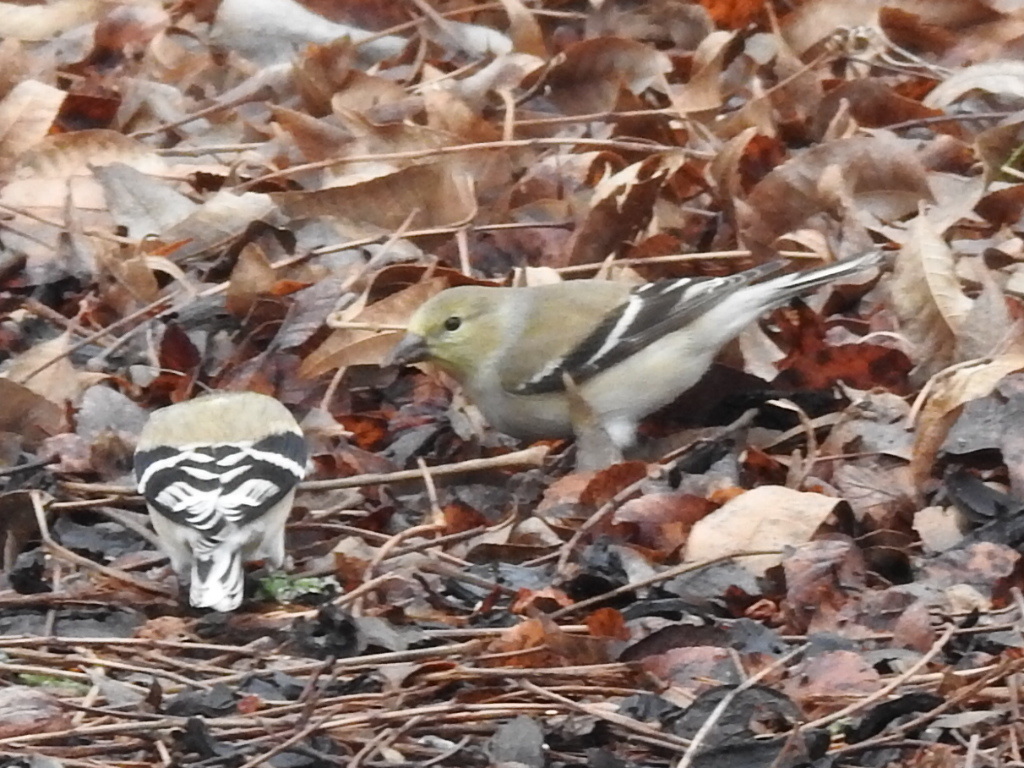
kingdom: Animalia
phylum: Chordata
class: Aves
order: Passeriformes
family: Fringillidae
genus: Spinus
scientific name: Spinus tristis
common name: American goldfinch
